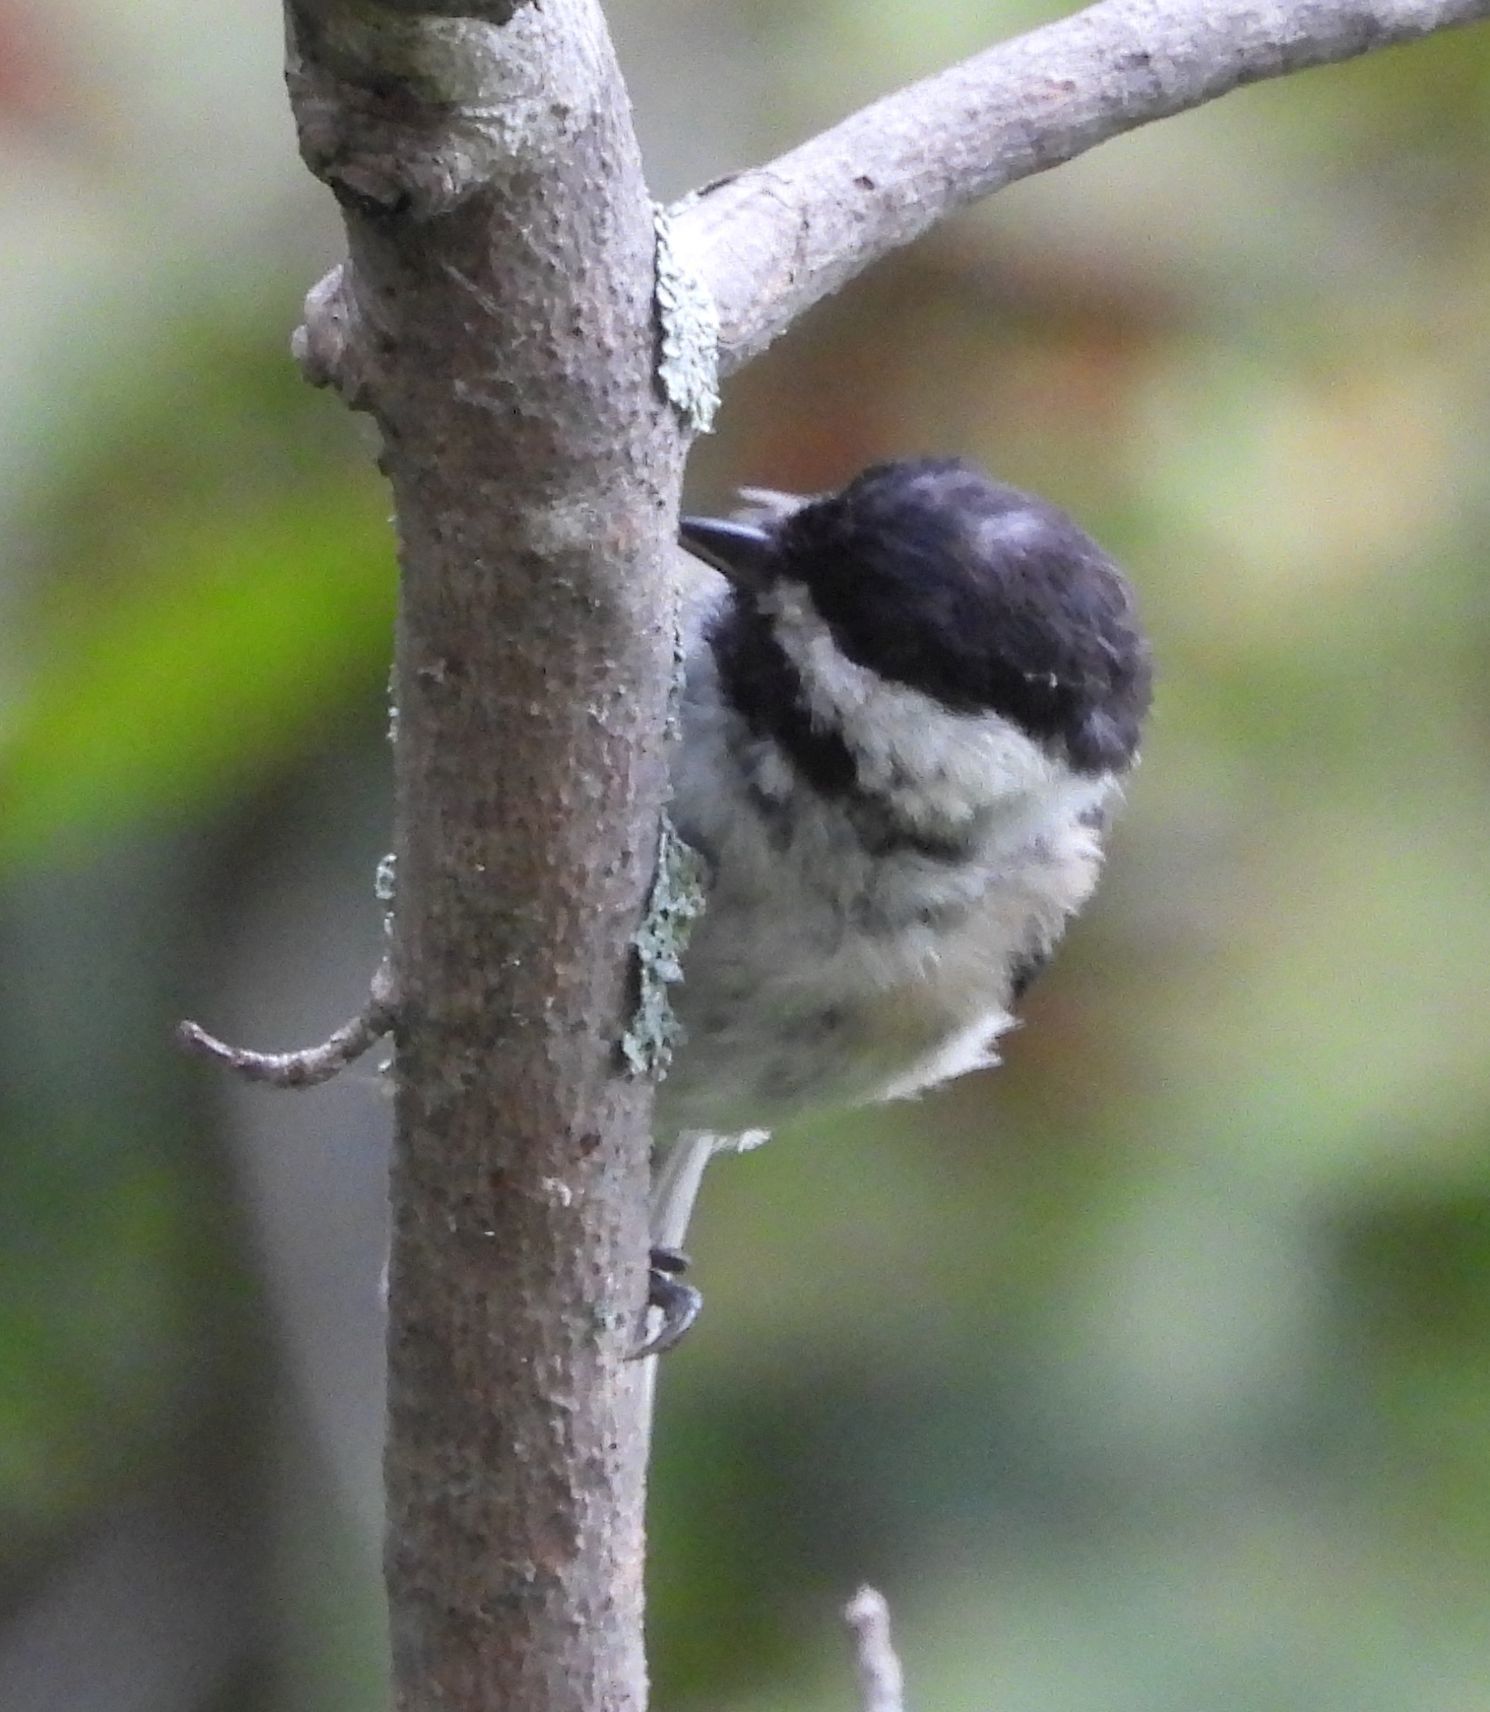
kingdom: Animalia
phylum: Chordata
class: Aves
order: Passeriformes
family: Paridae
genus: Poecile
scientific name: Poecile atricapillus
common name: Black-capped chickadee
